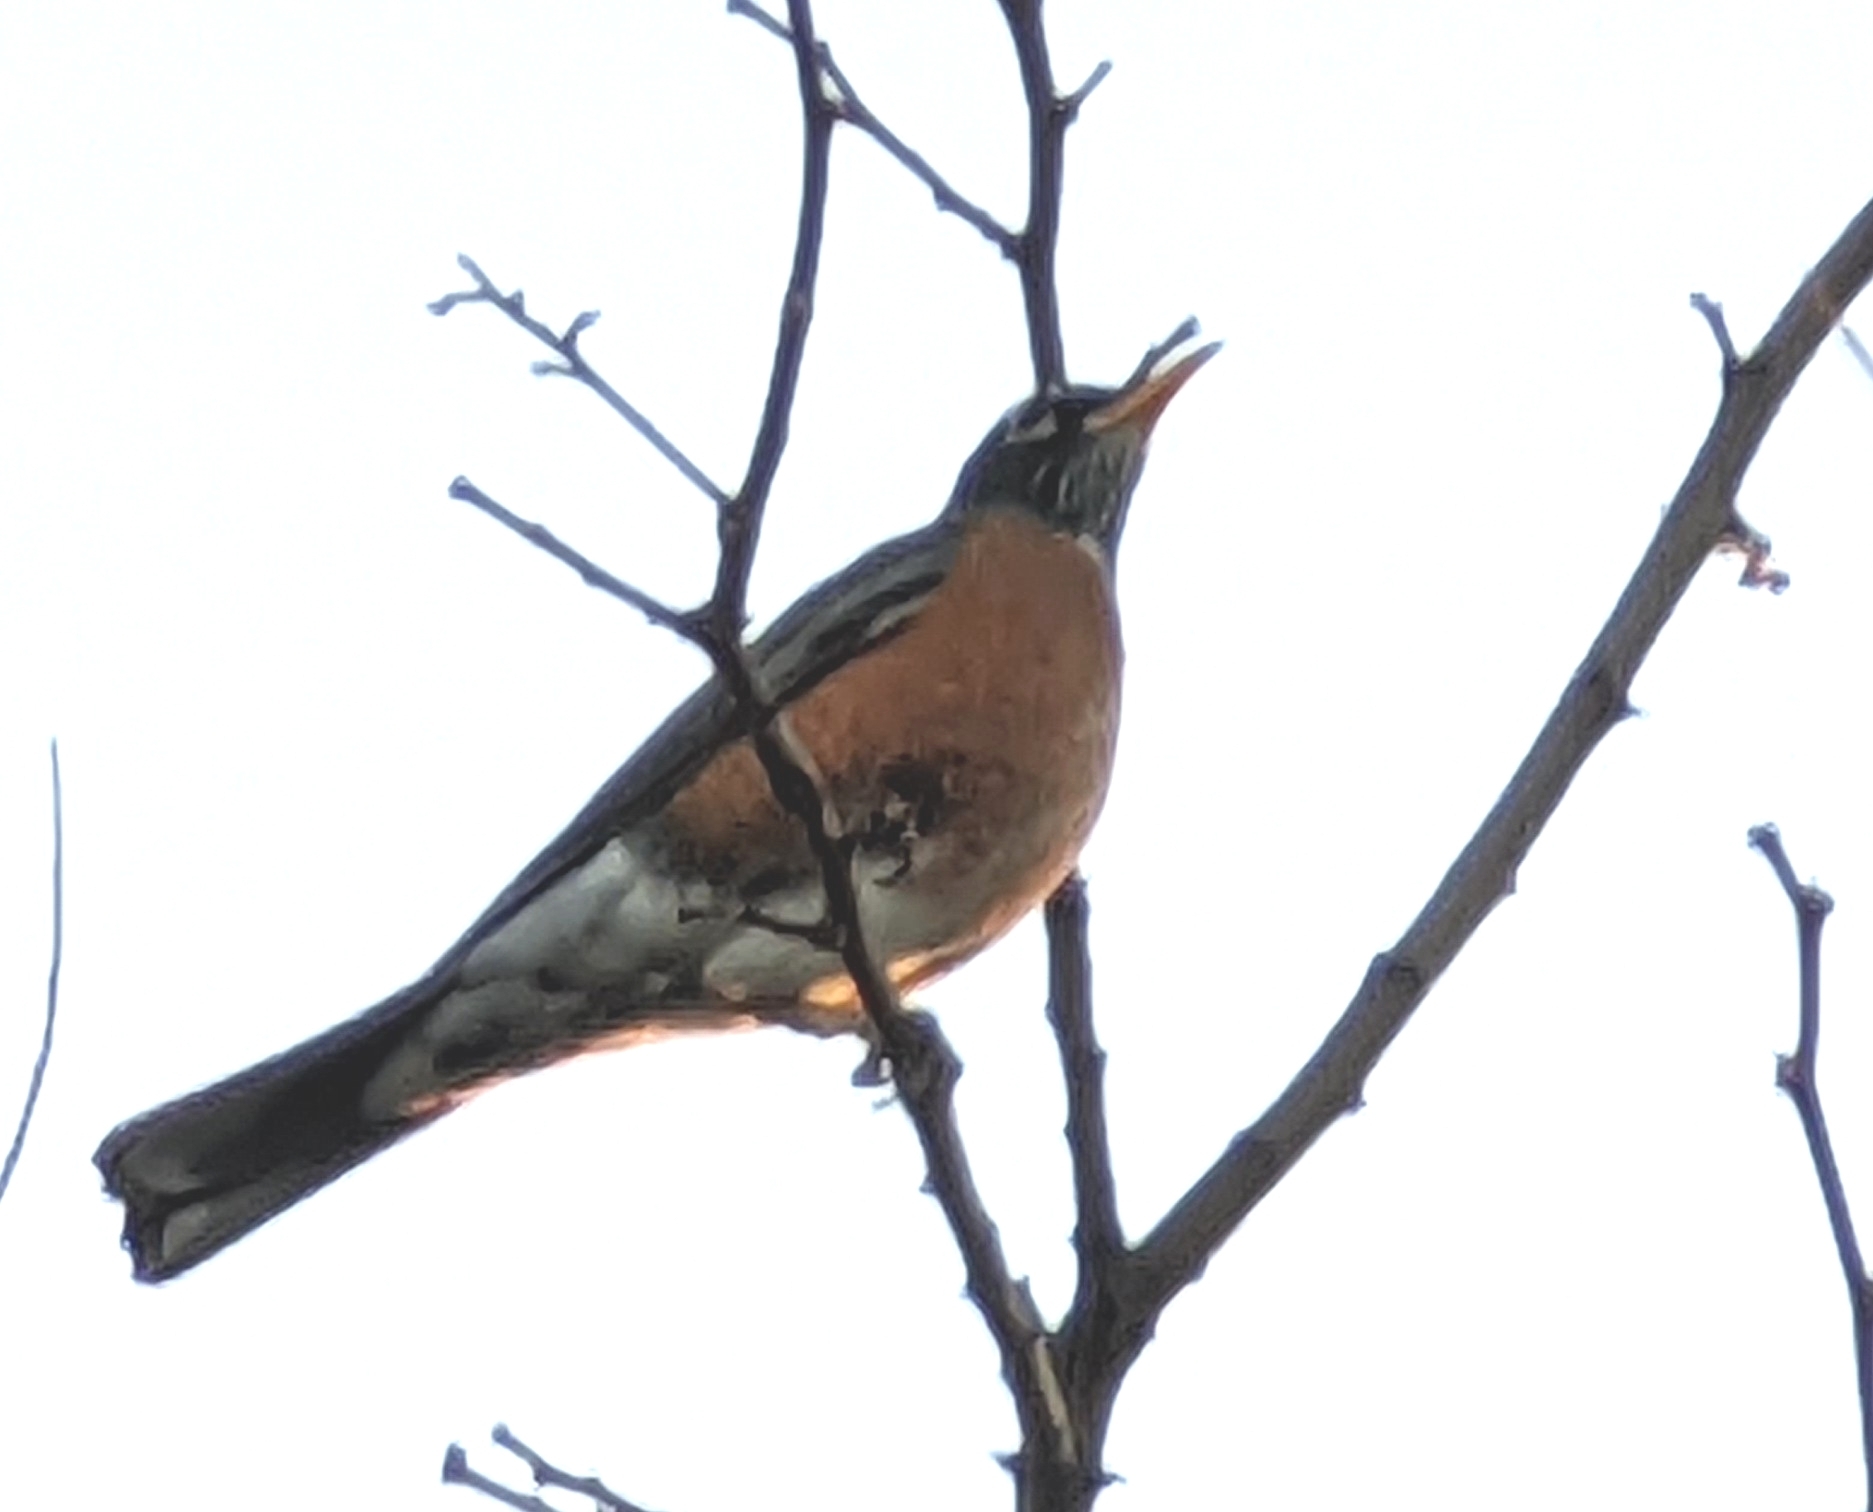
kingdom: Animalia
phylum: Chordata
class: Aves
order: Passeriformes
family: Turdidae
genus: Turdus
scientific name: Turdus migratorius
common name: American robin
